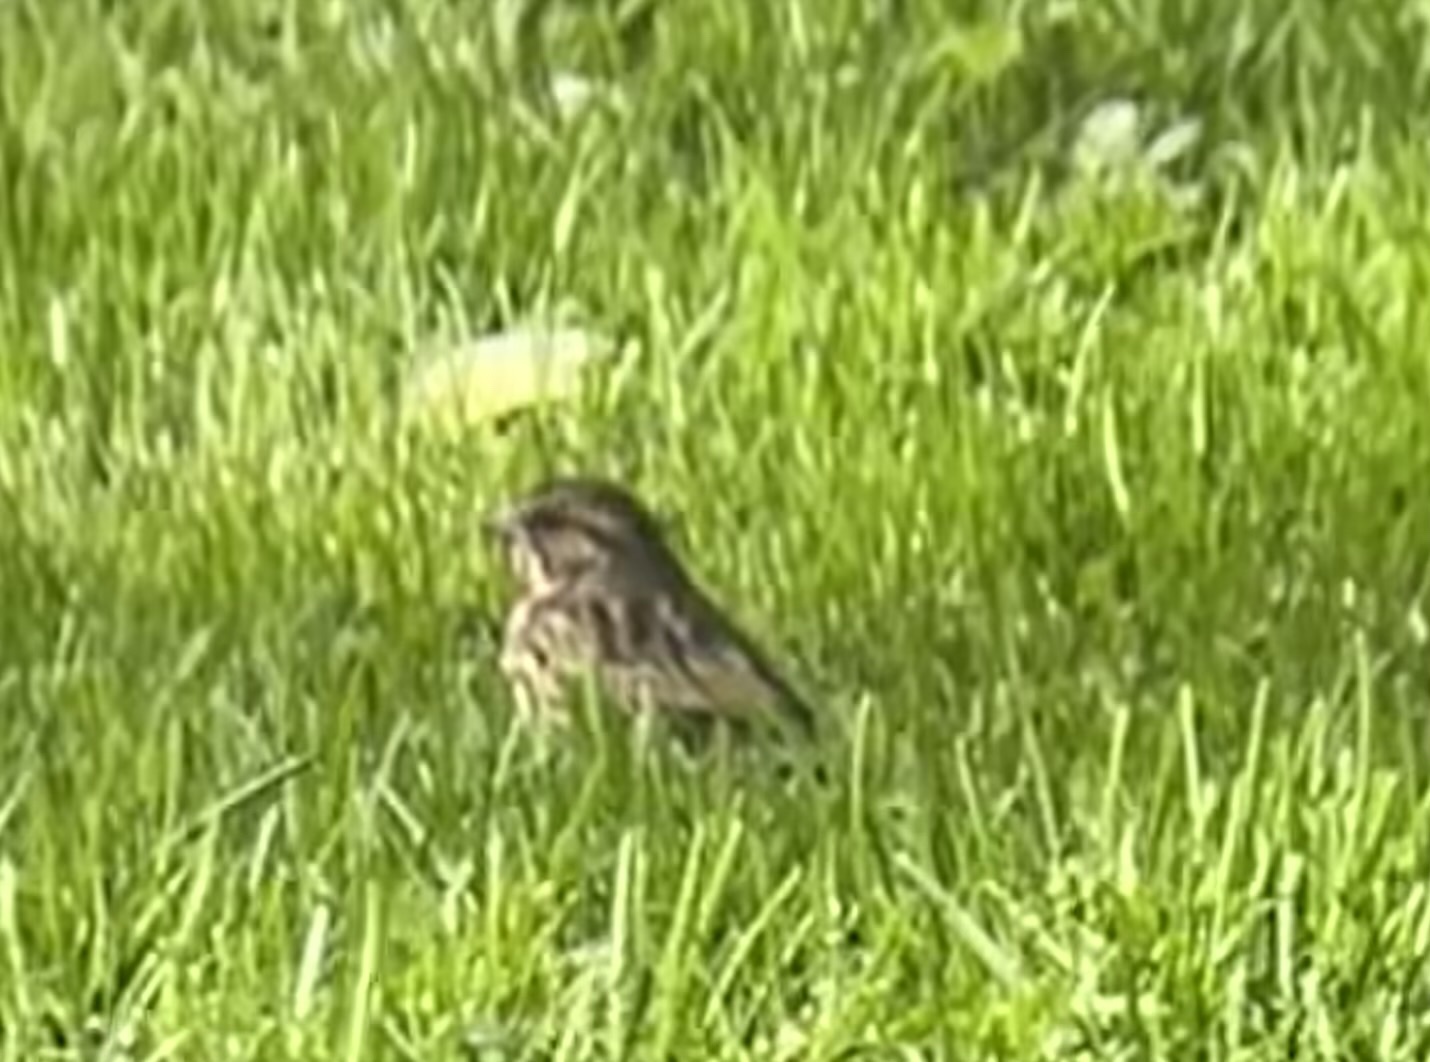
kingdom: Animalia
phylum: Chordata
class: Aves
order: Passeriformes
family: Passerellidae
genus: Melospiza
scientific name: Melospiza melodia
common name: Song sparrow
